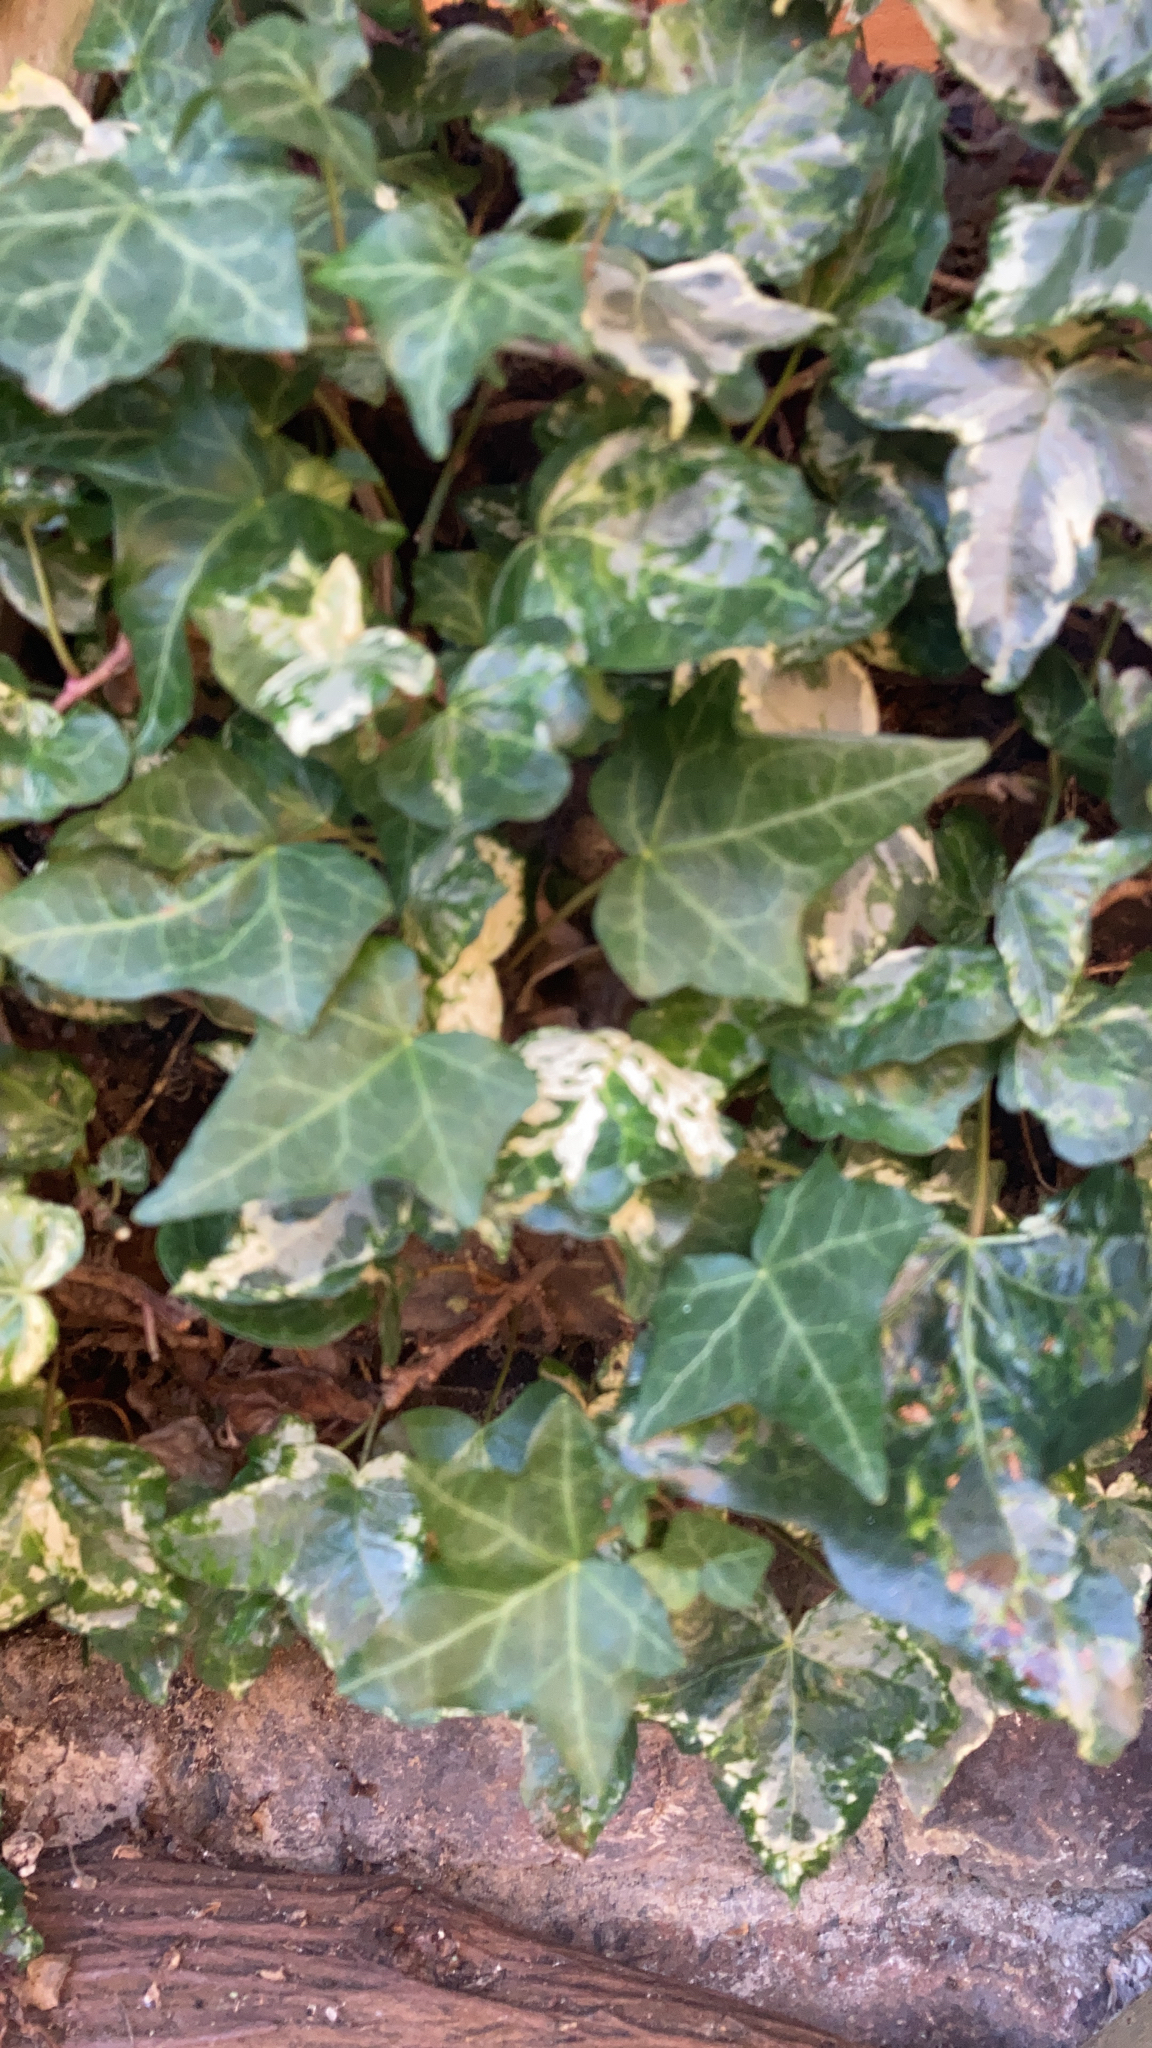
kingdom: Plantae
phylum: Tracheophyta
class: Magnoliopsida
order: Apiales
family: Araliaceae
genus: Hedera
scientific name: Hedera helix
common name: Ivy
